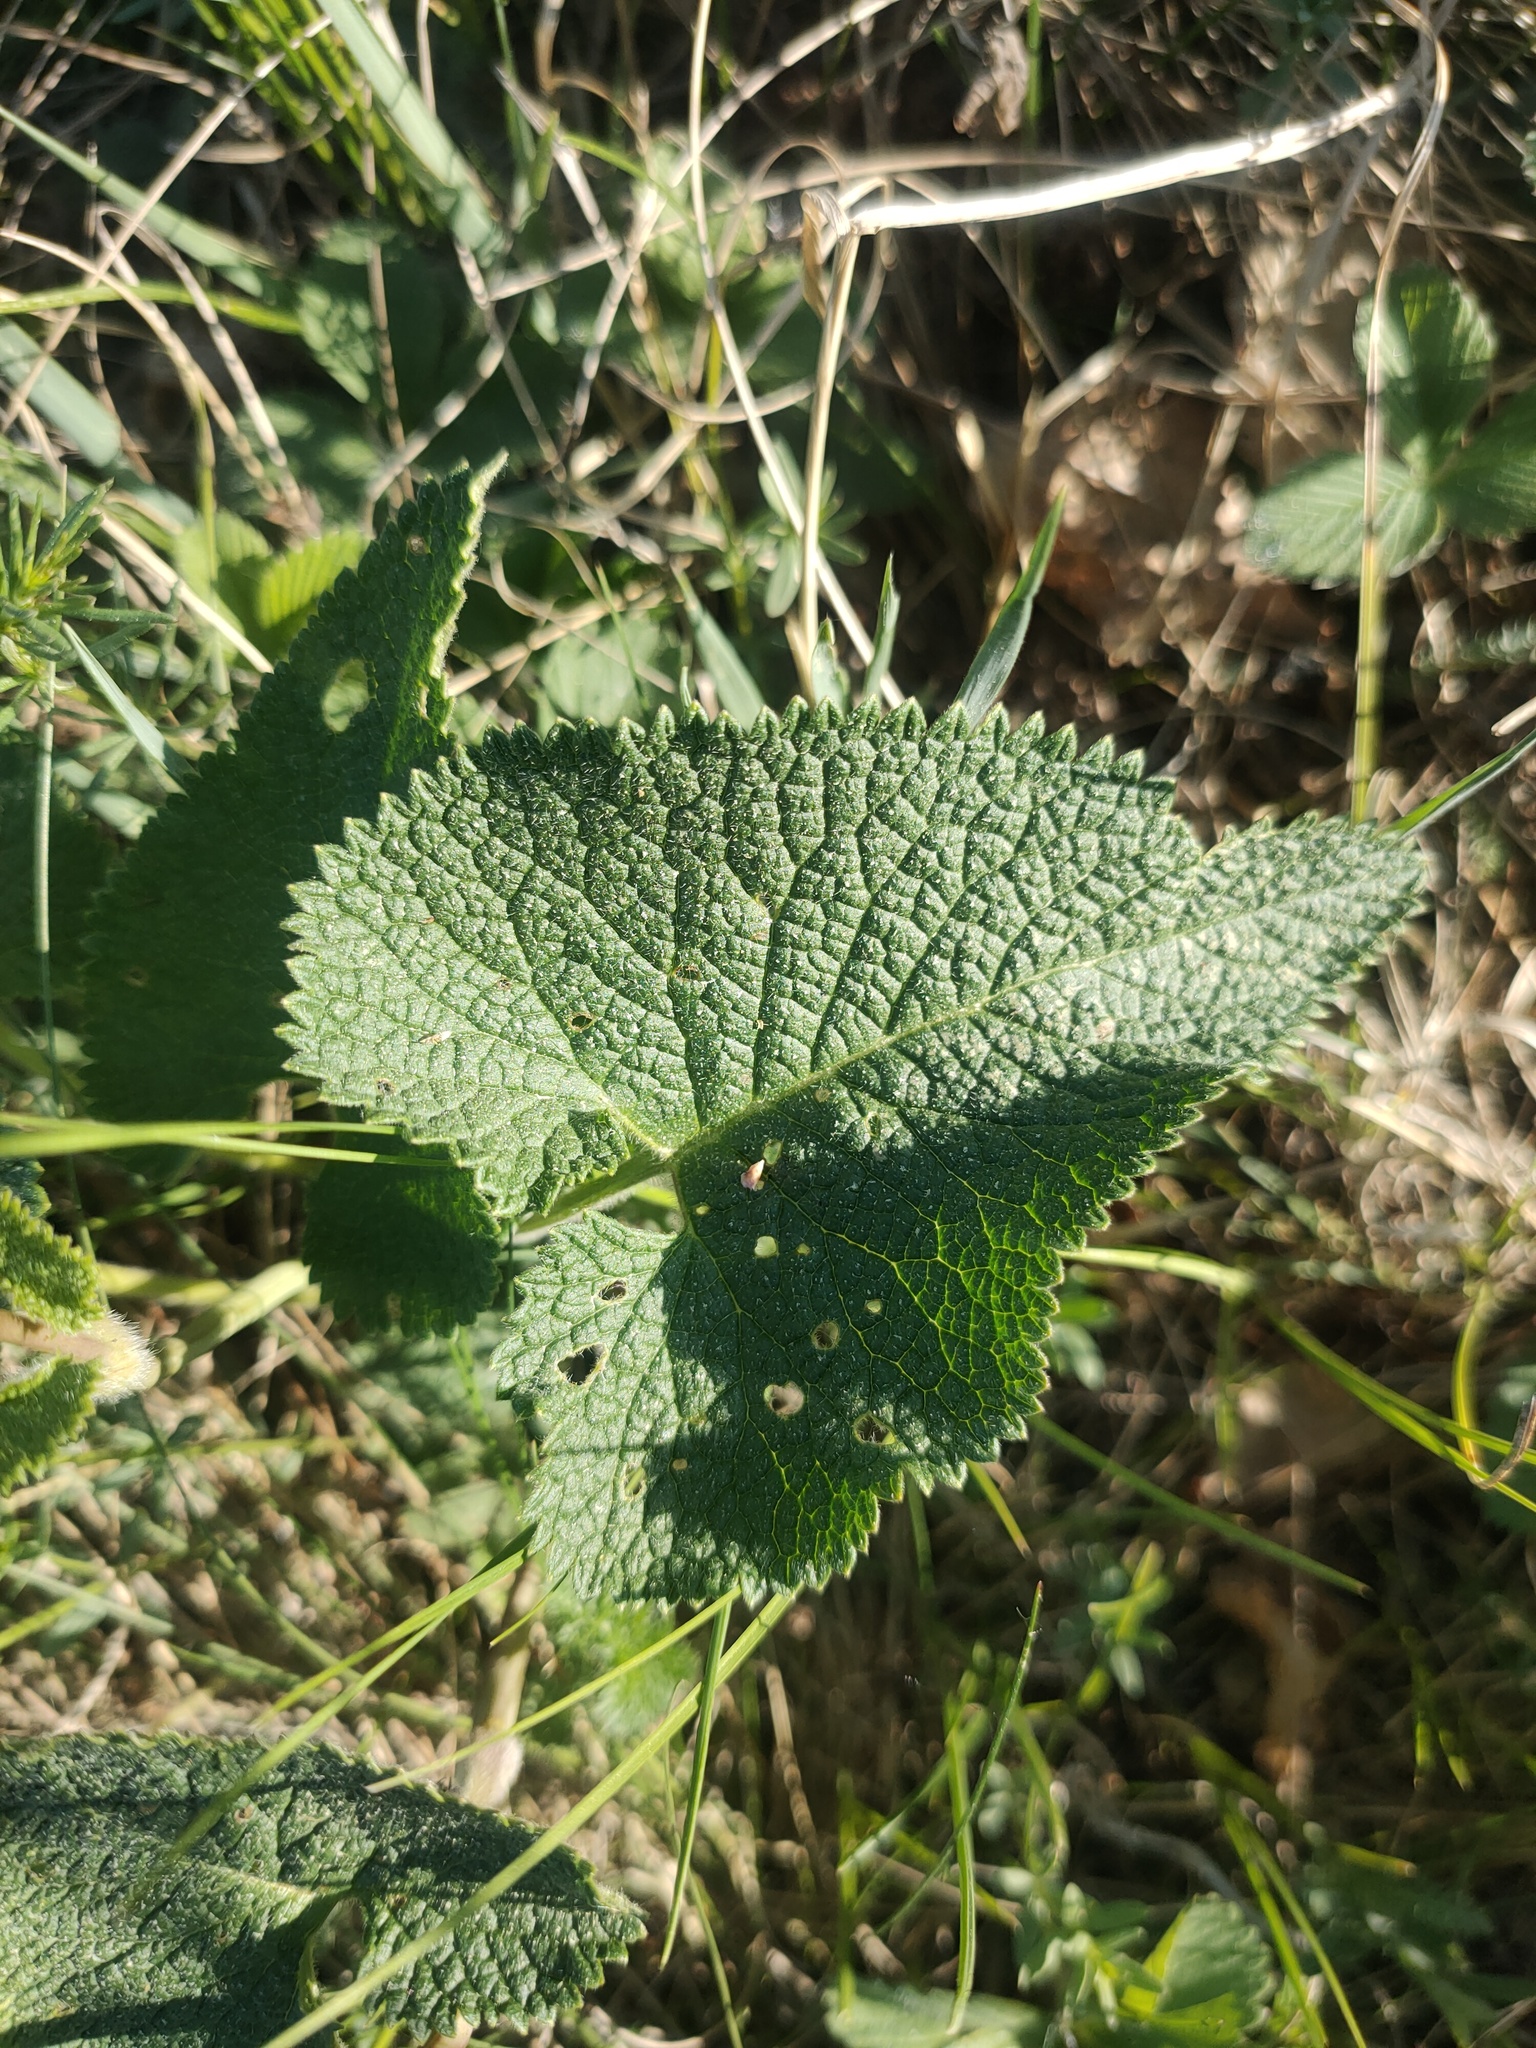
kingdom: Plantae
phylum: Tracheophyta
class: Magnoliopsida
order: Lamiales
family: Lamiaceae
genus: Phlomoides
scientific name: Phlomoides tuberosa
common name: Tuberous jerusalem sage
